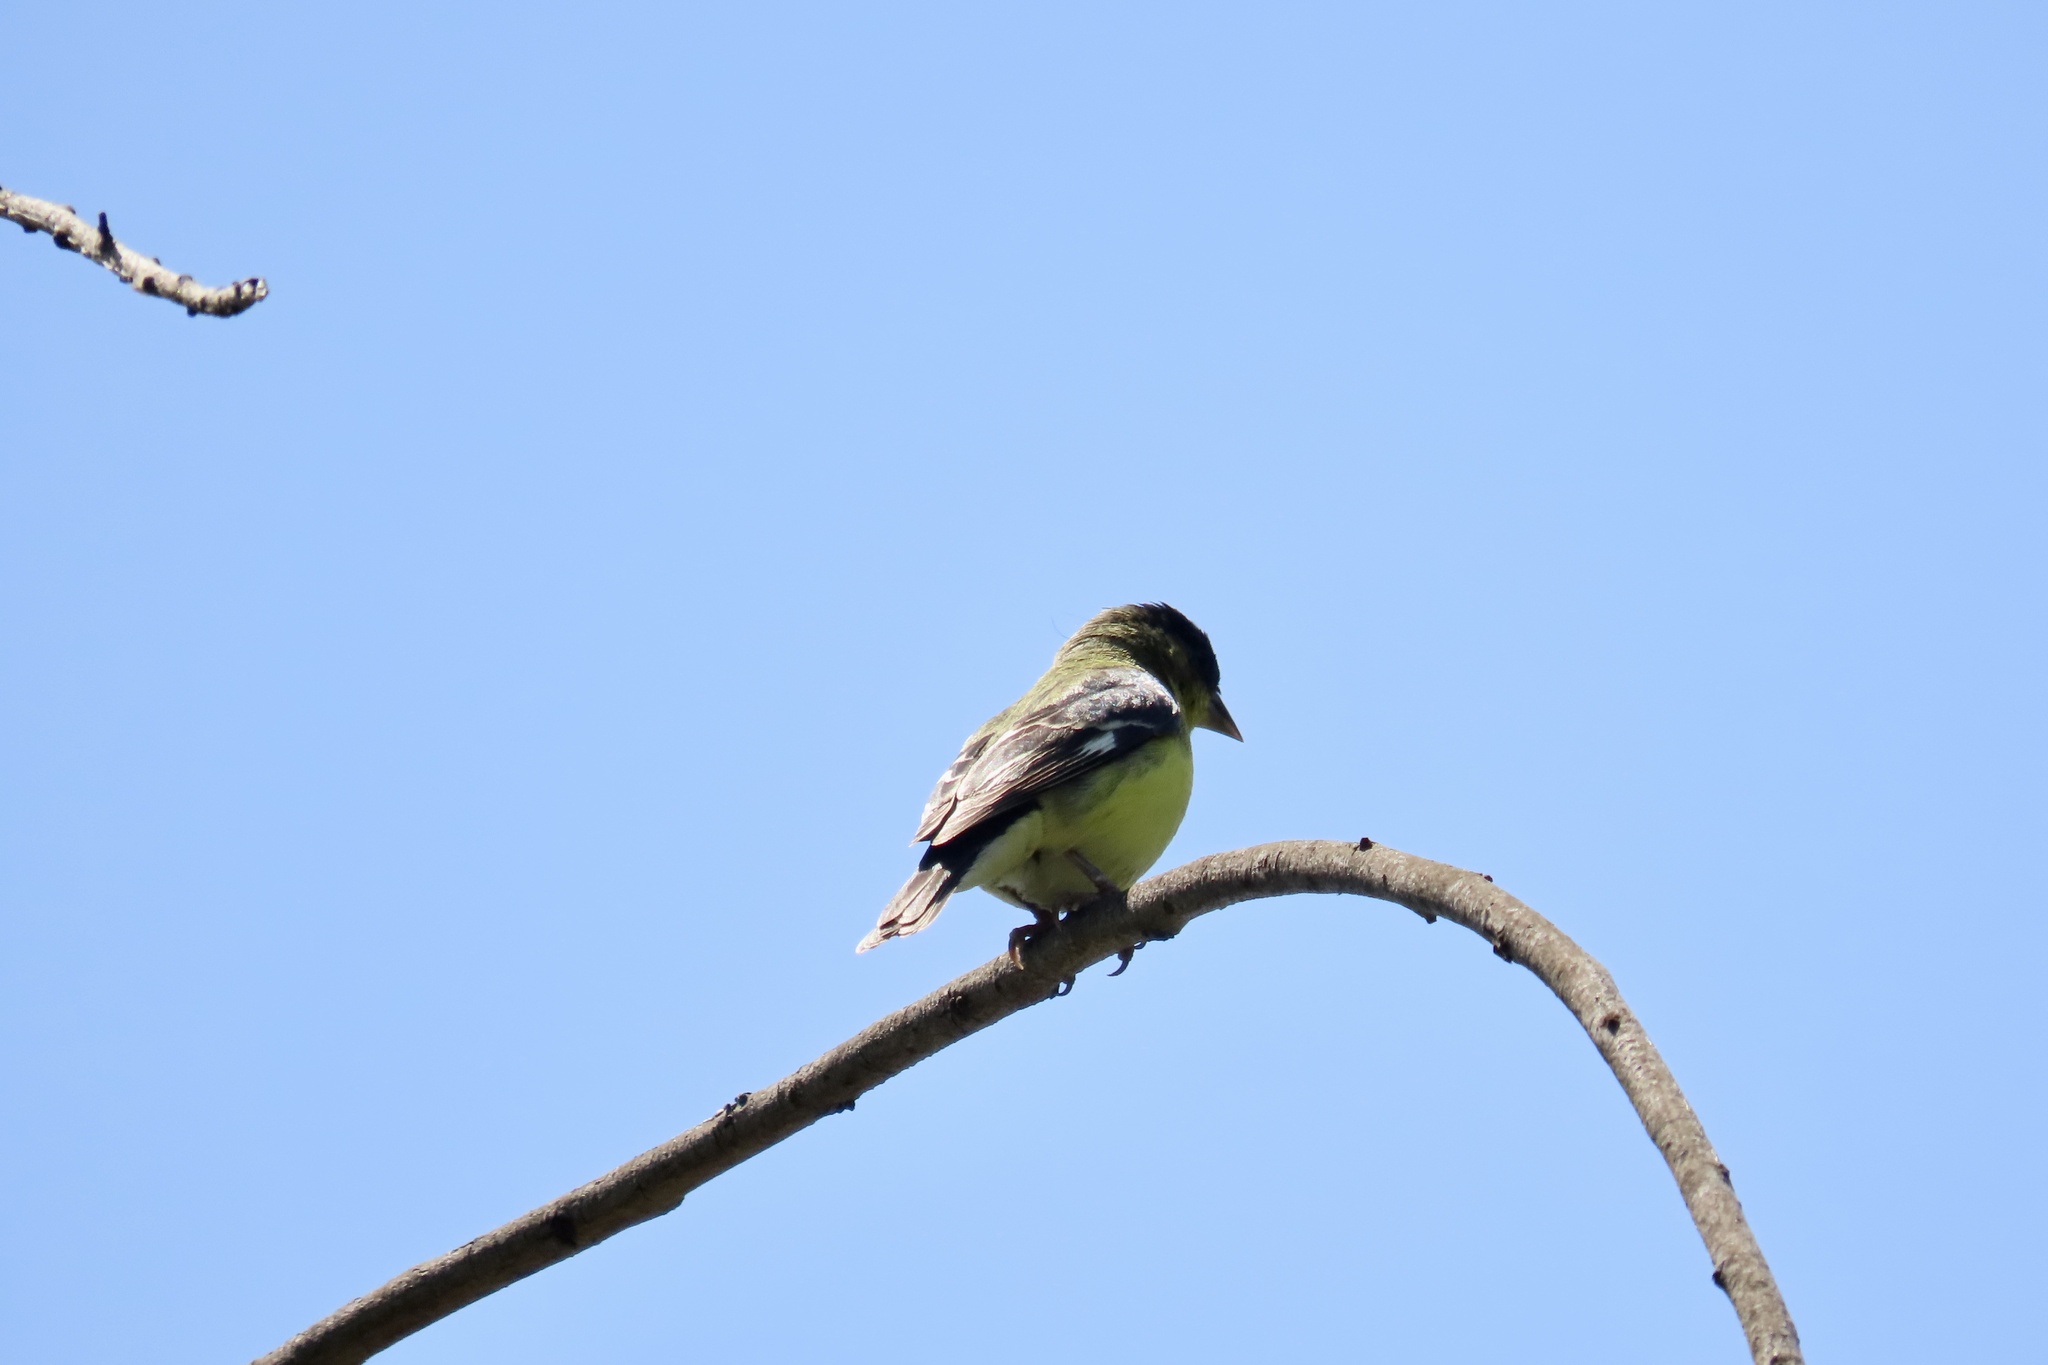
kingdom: Animalia
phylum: Chordata
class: Aves
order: Passeriformes
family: Fringillidae
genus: Spinus
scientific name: Spinus psaltria
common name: Lesser goldfinch
